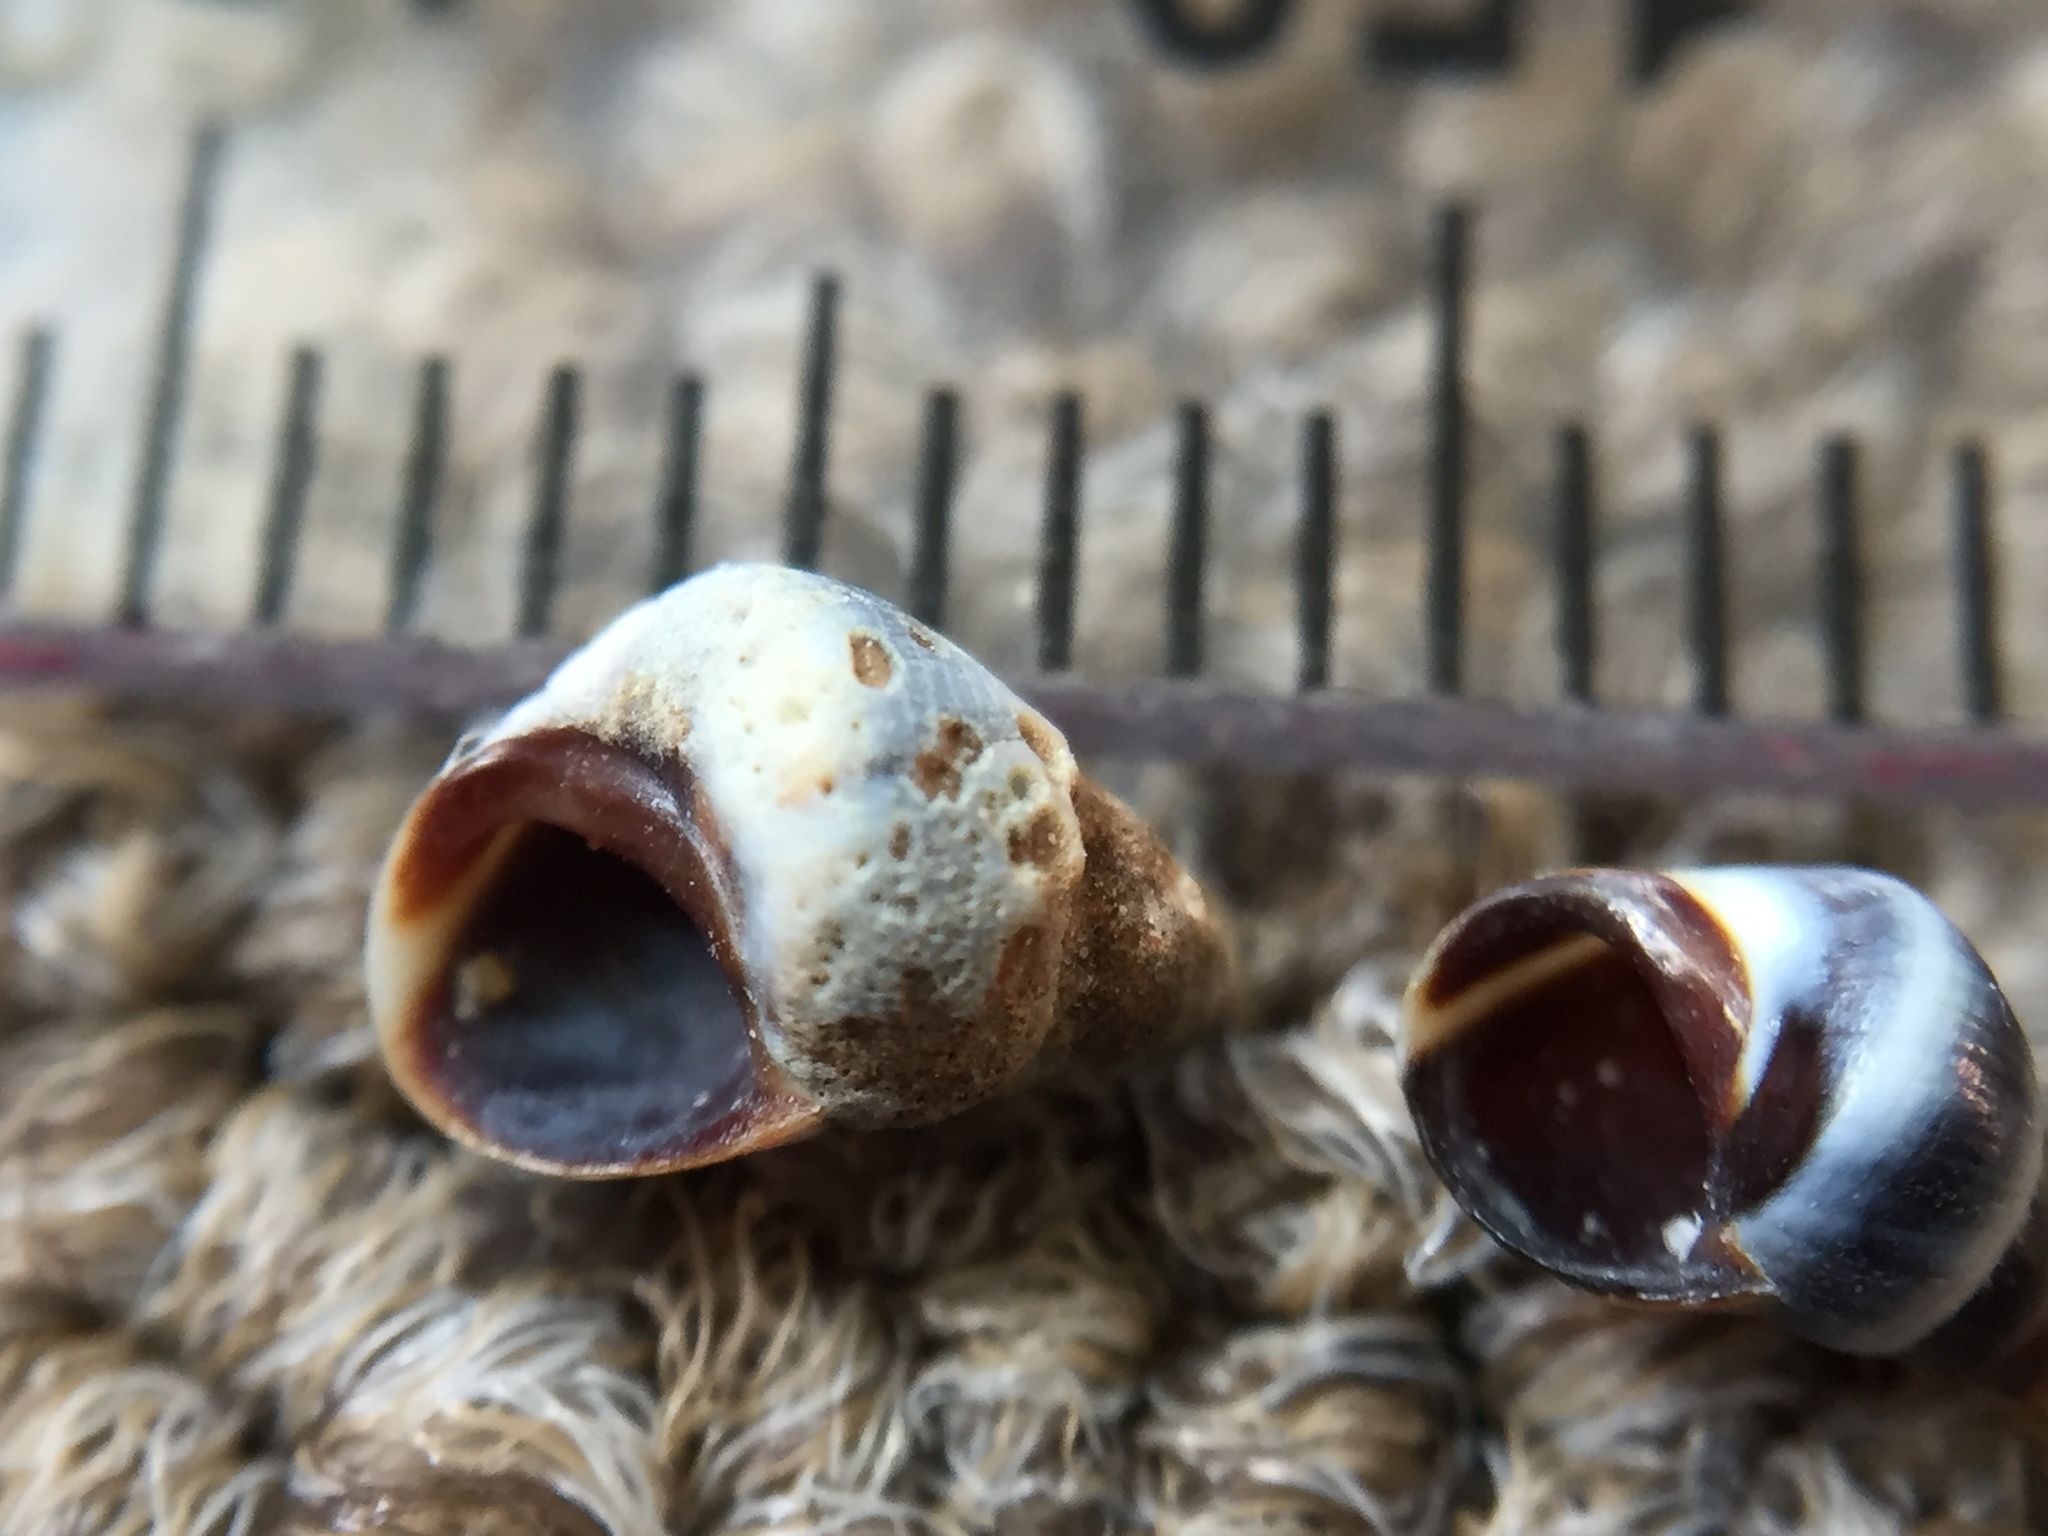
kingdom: Animalia
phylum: Mollusca
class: Gastropoda
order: Littorinimorpha
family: Littorinidae
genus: Austrolittorina
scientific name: Austrolittorina antipodum
